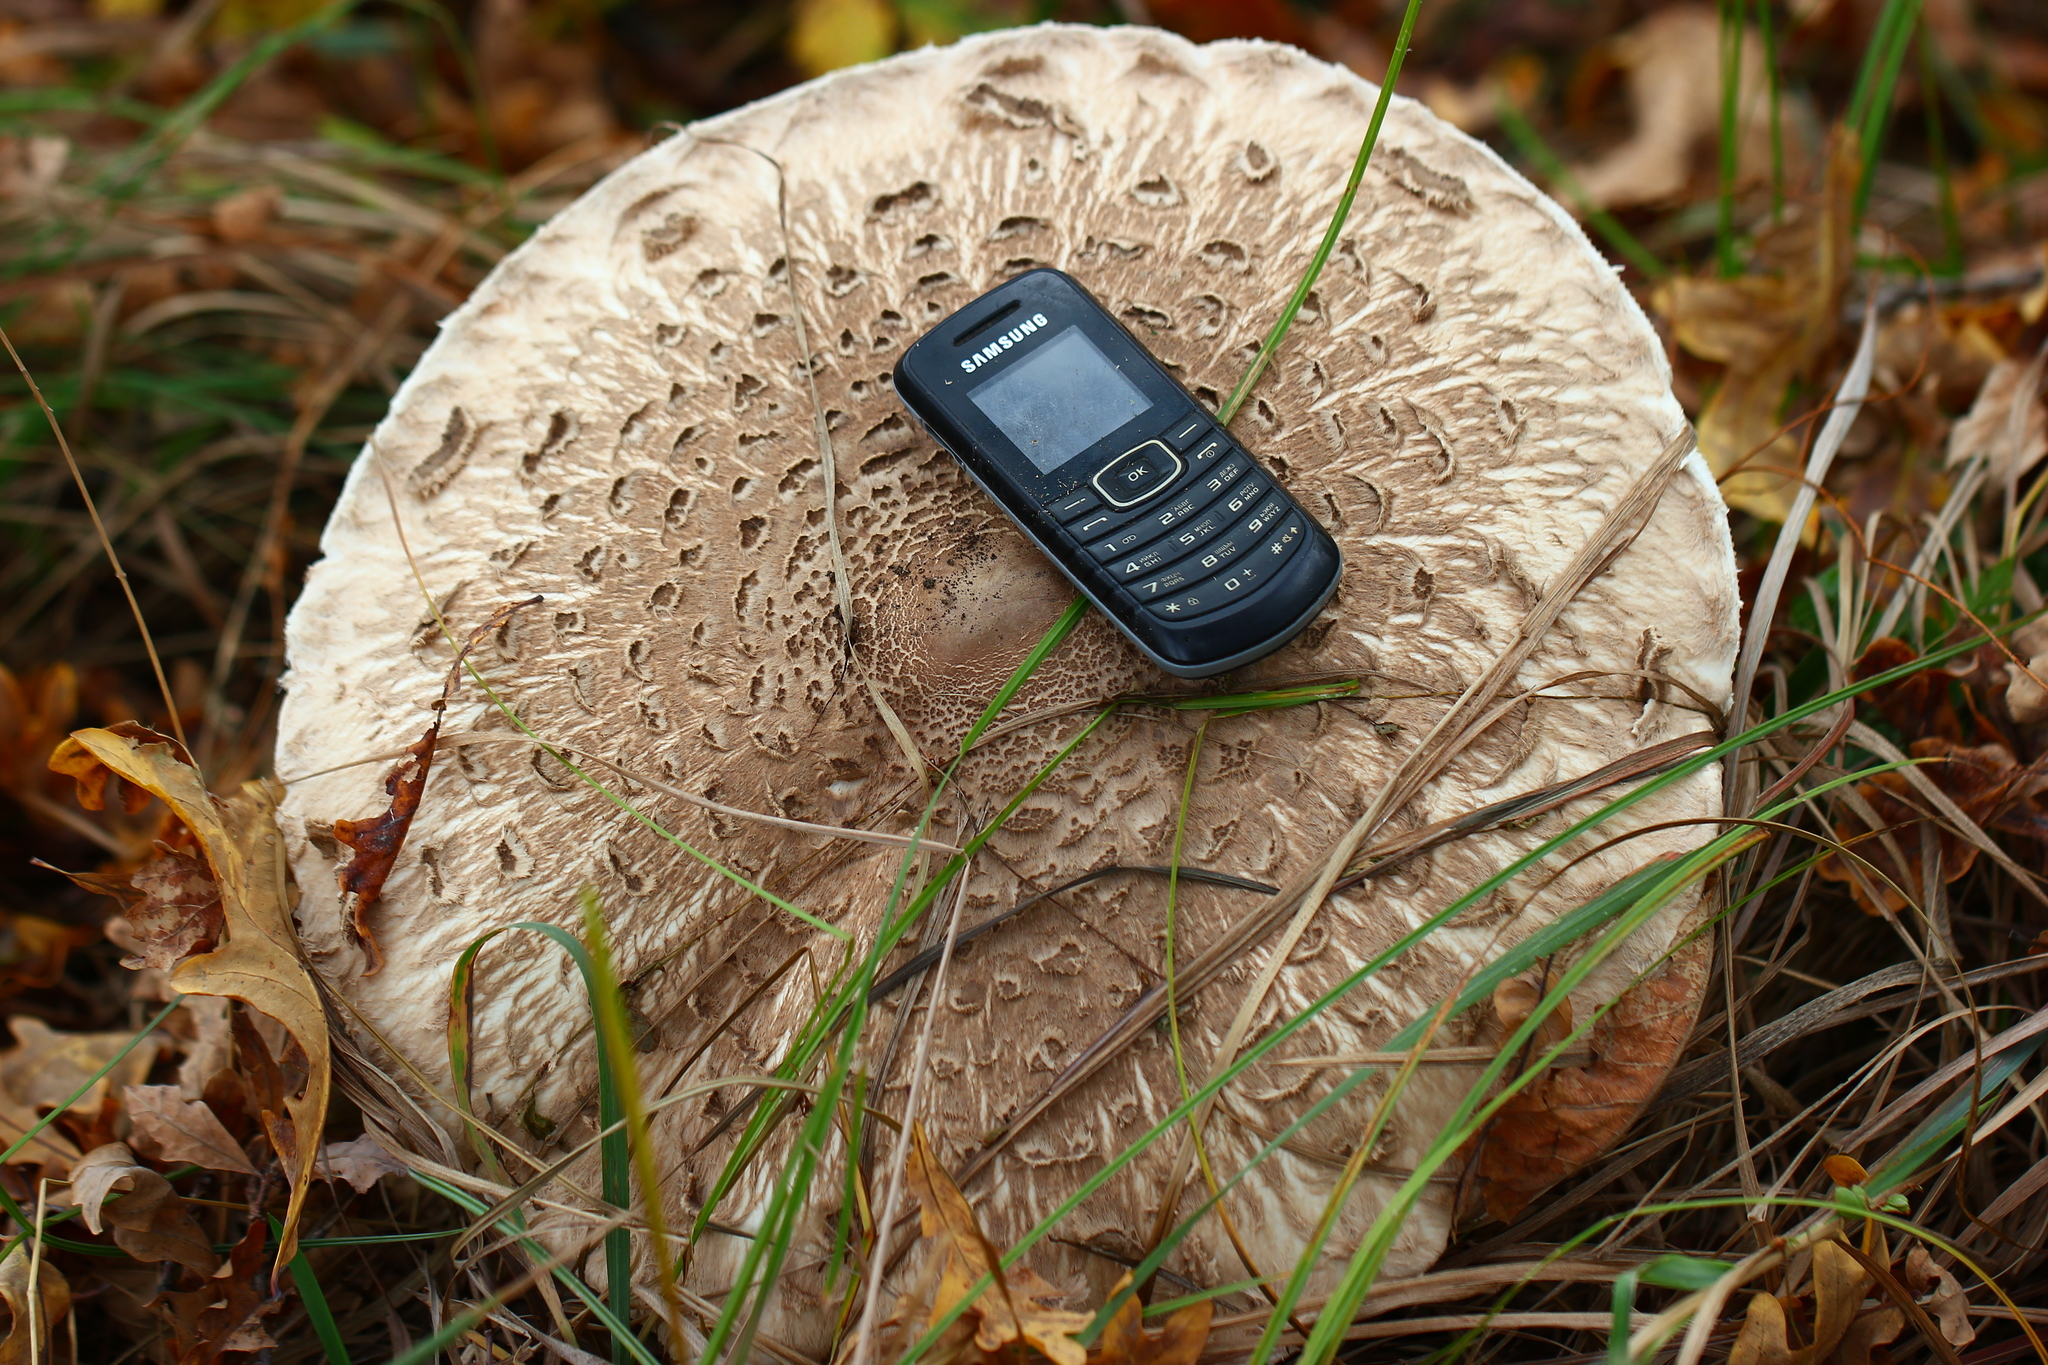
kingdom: Fungi
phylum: Basidiomycota
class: Agaricomycetes
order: Agaricales
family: Agaricaceae
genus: Macrolepiota
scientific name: Macrolepiota procera
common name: Parasol
